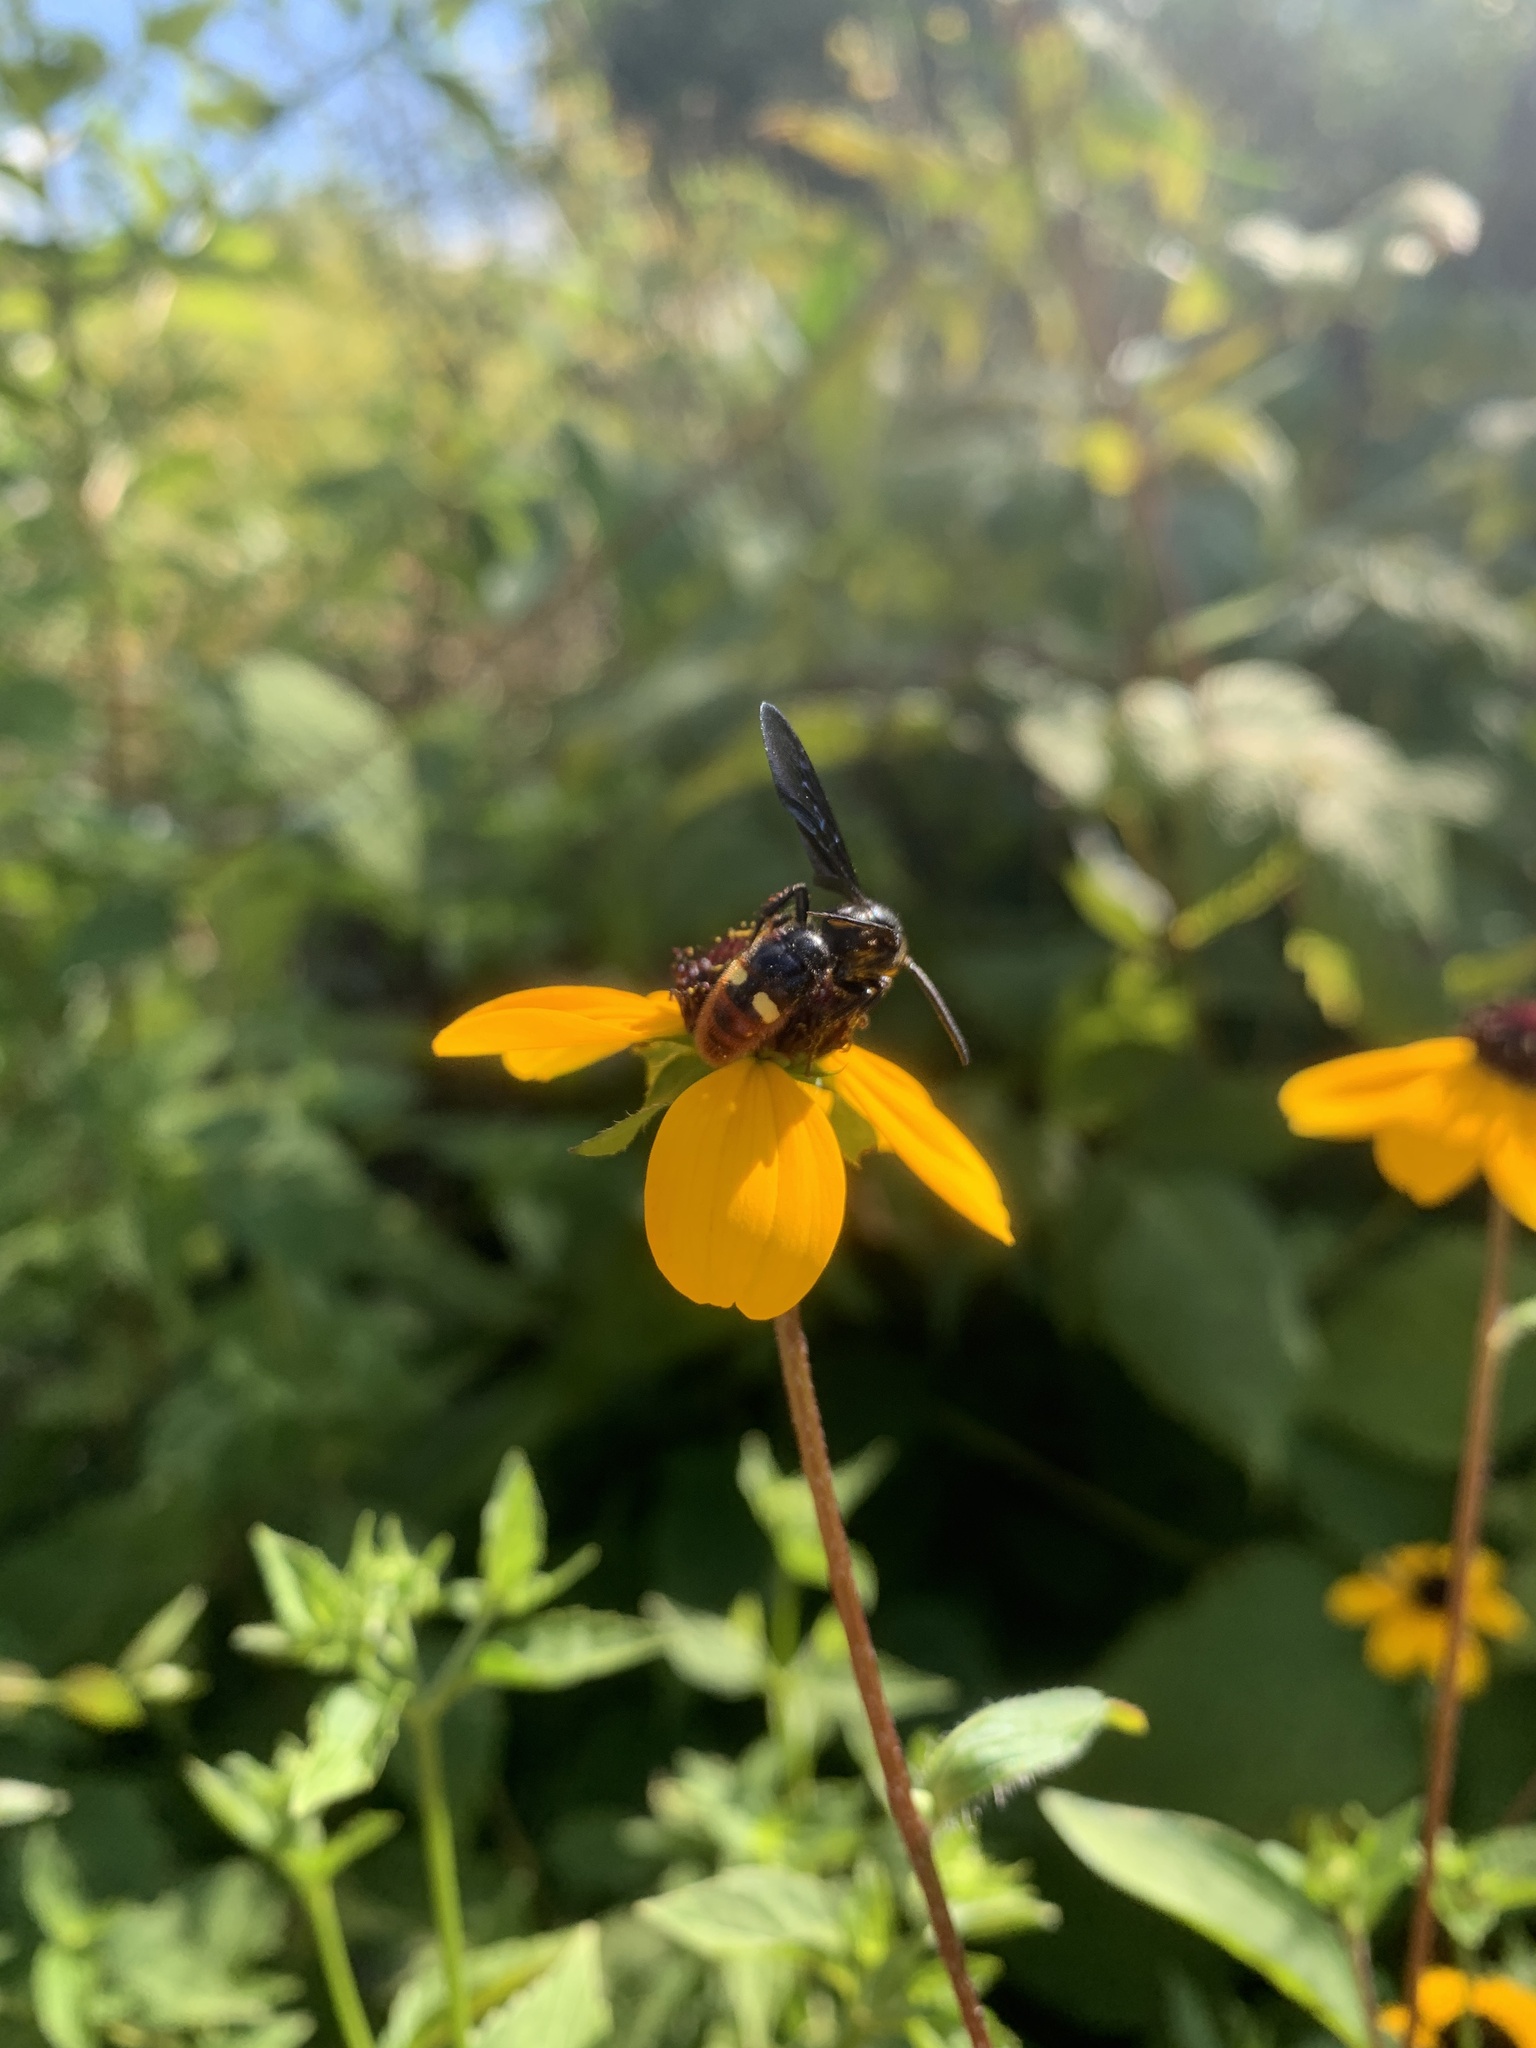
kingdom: Animalia
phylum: Arthropoda
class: Insecta
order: Hymenoptera
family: Scoliidae
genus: Scolia
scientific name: Scolia dubia
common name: Blue-winged scoliid wasp
